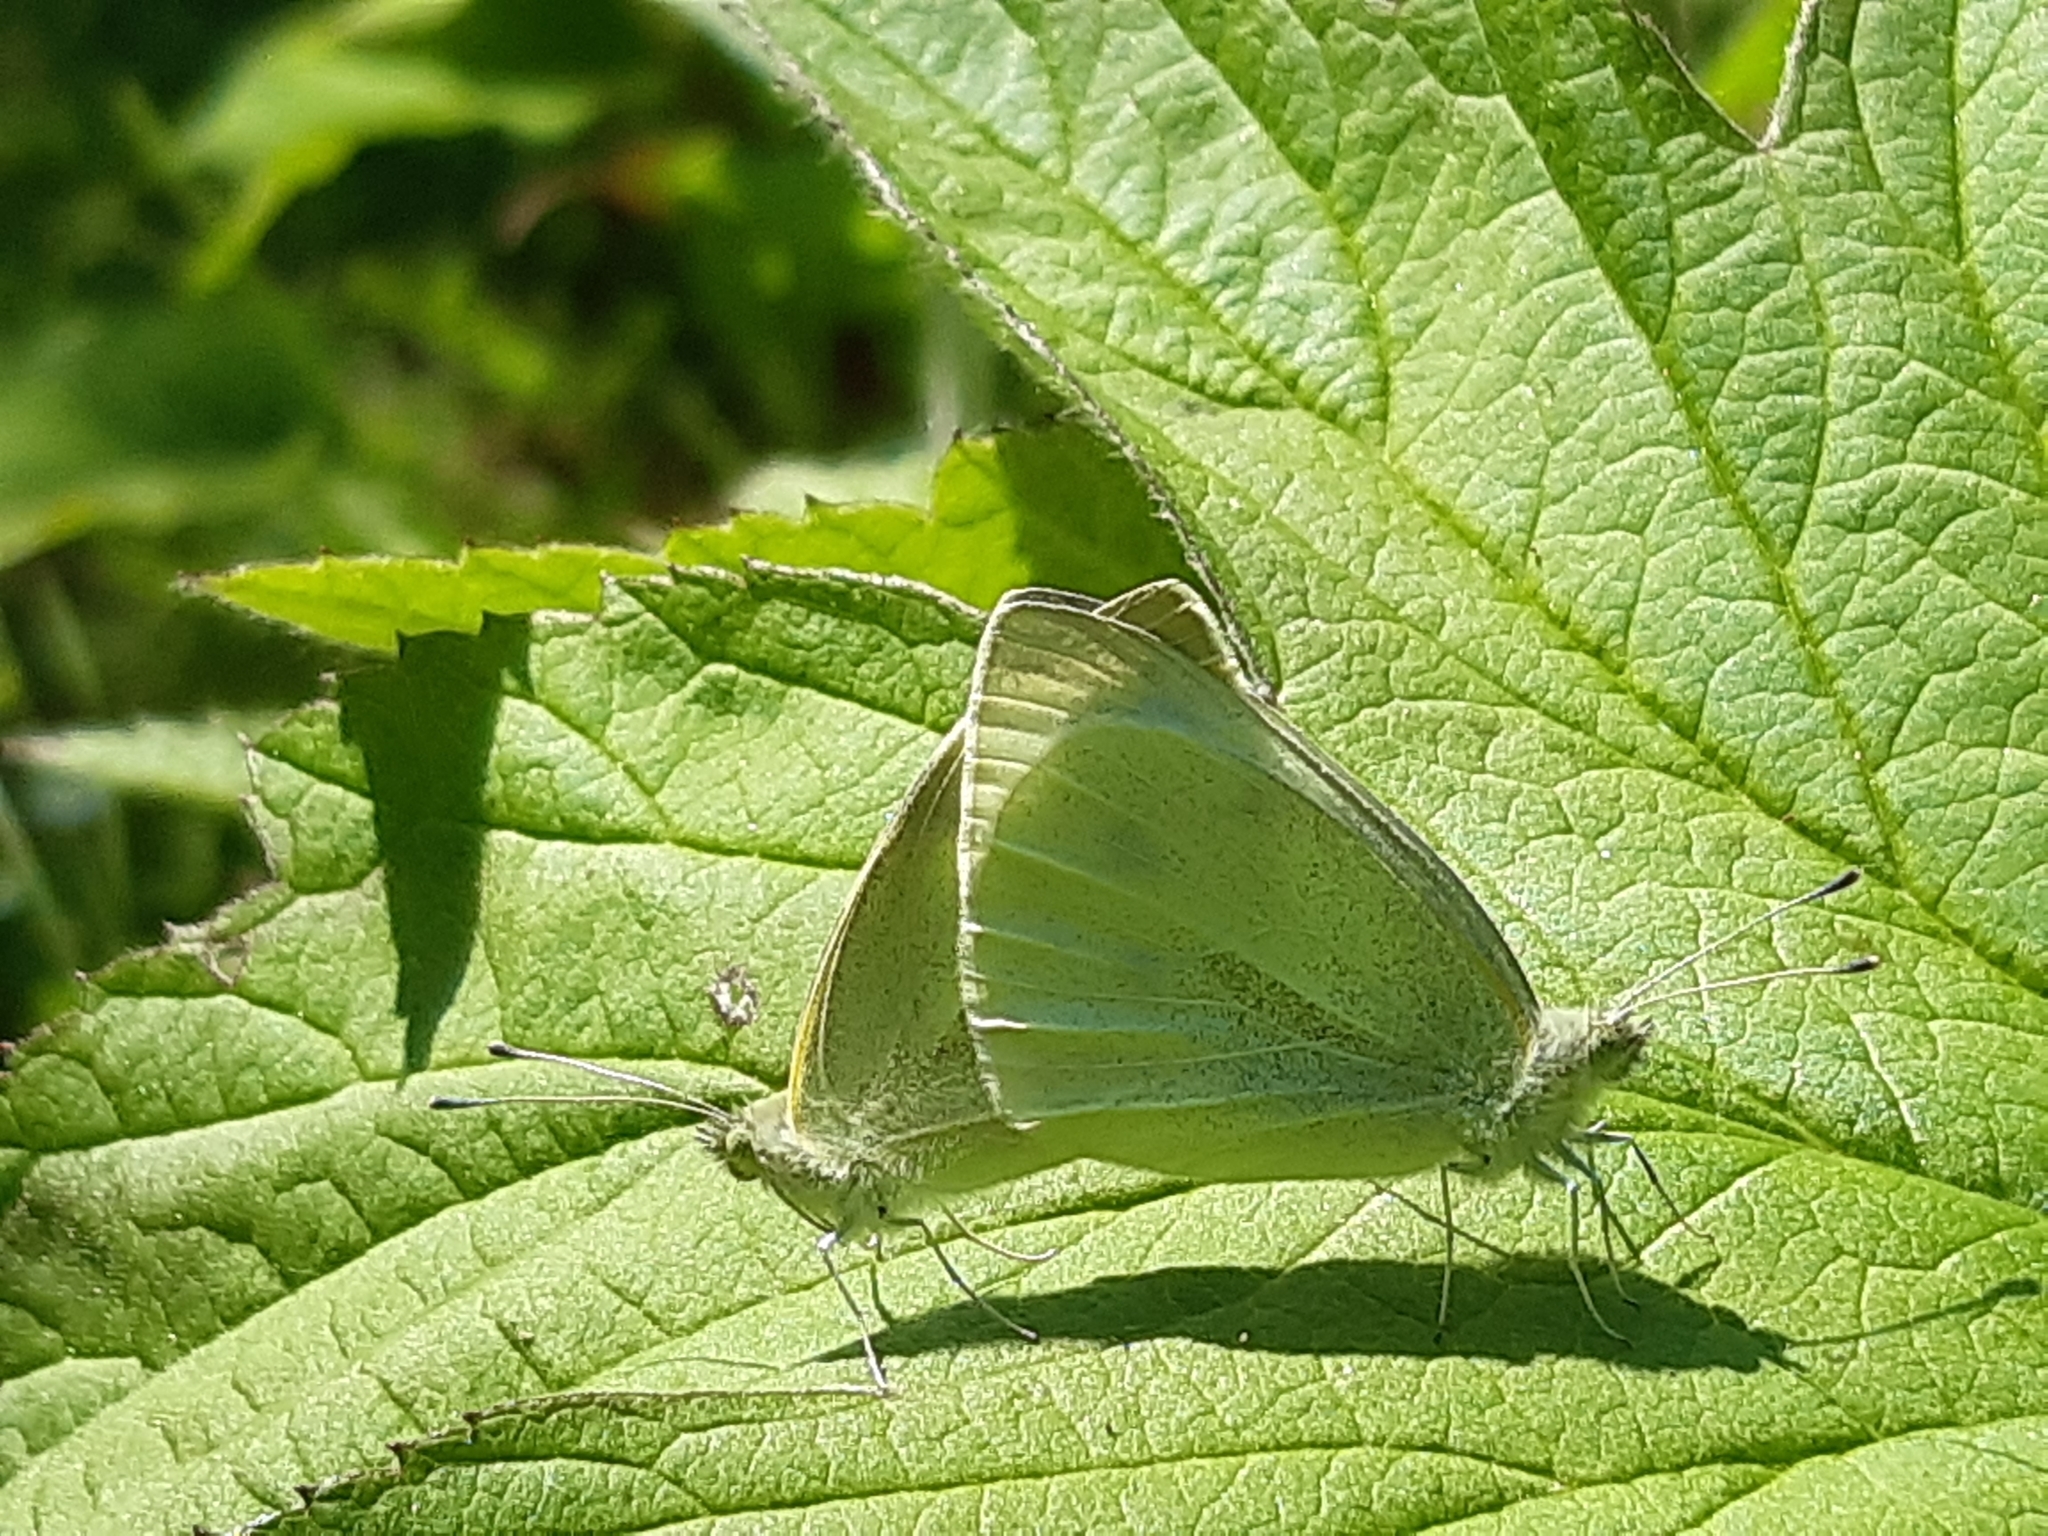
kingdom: Animalia
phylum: Arthropoda
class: Insecta
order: Lepidoptera
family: Pieridae
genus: Pieris
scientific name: Pieris rapae
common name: Small white
